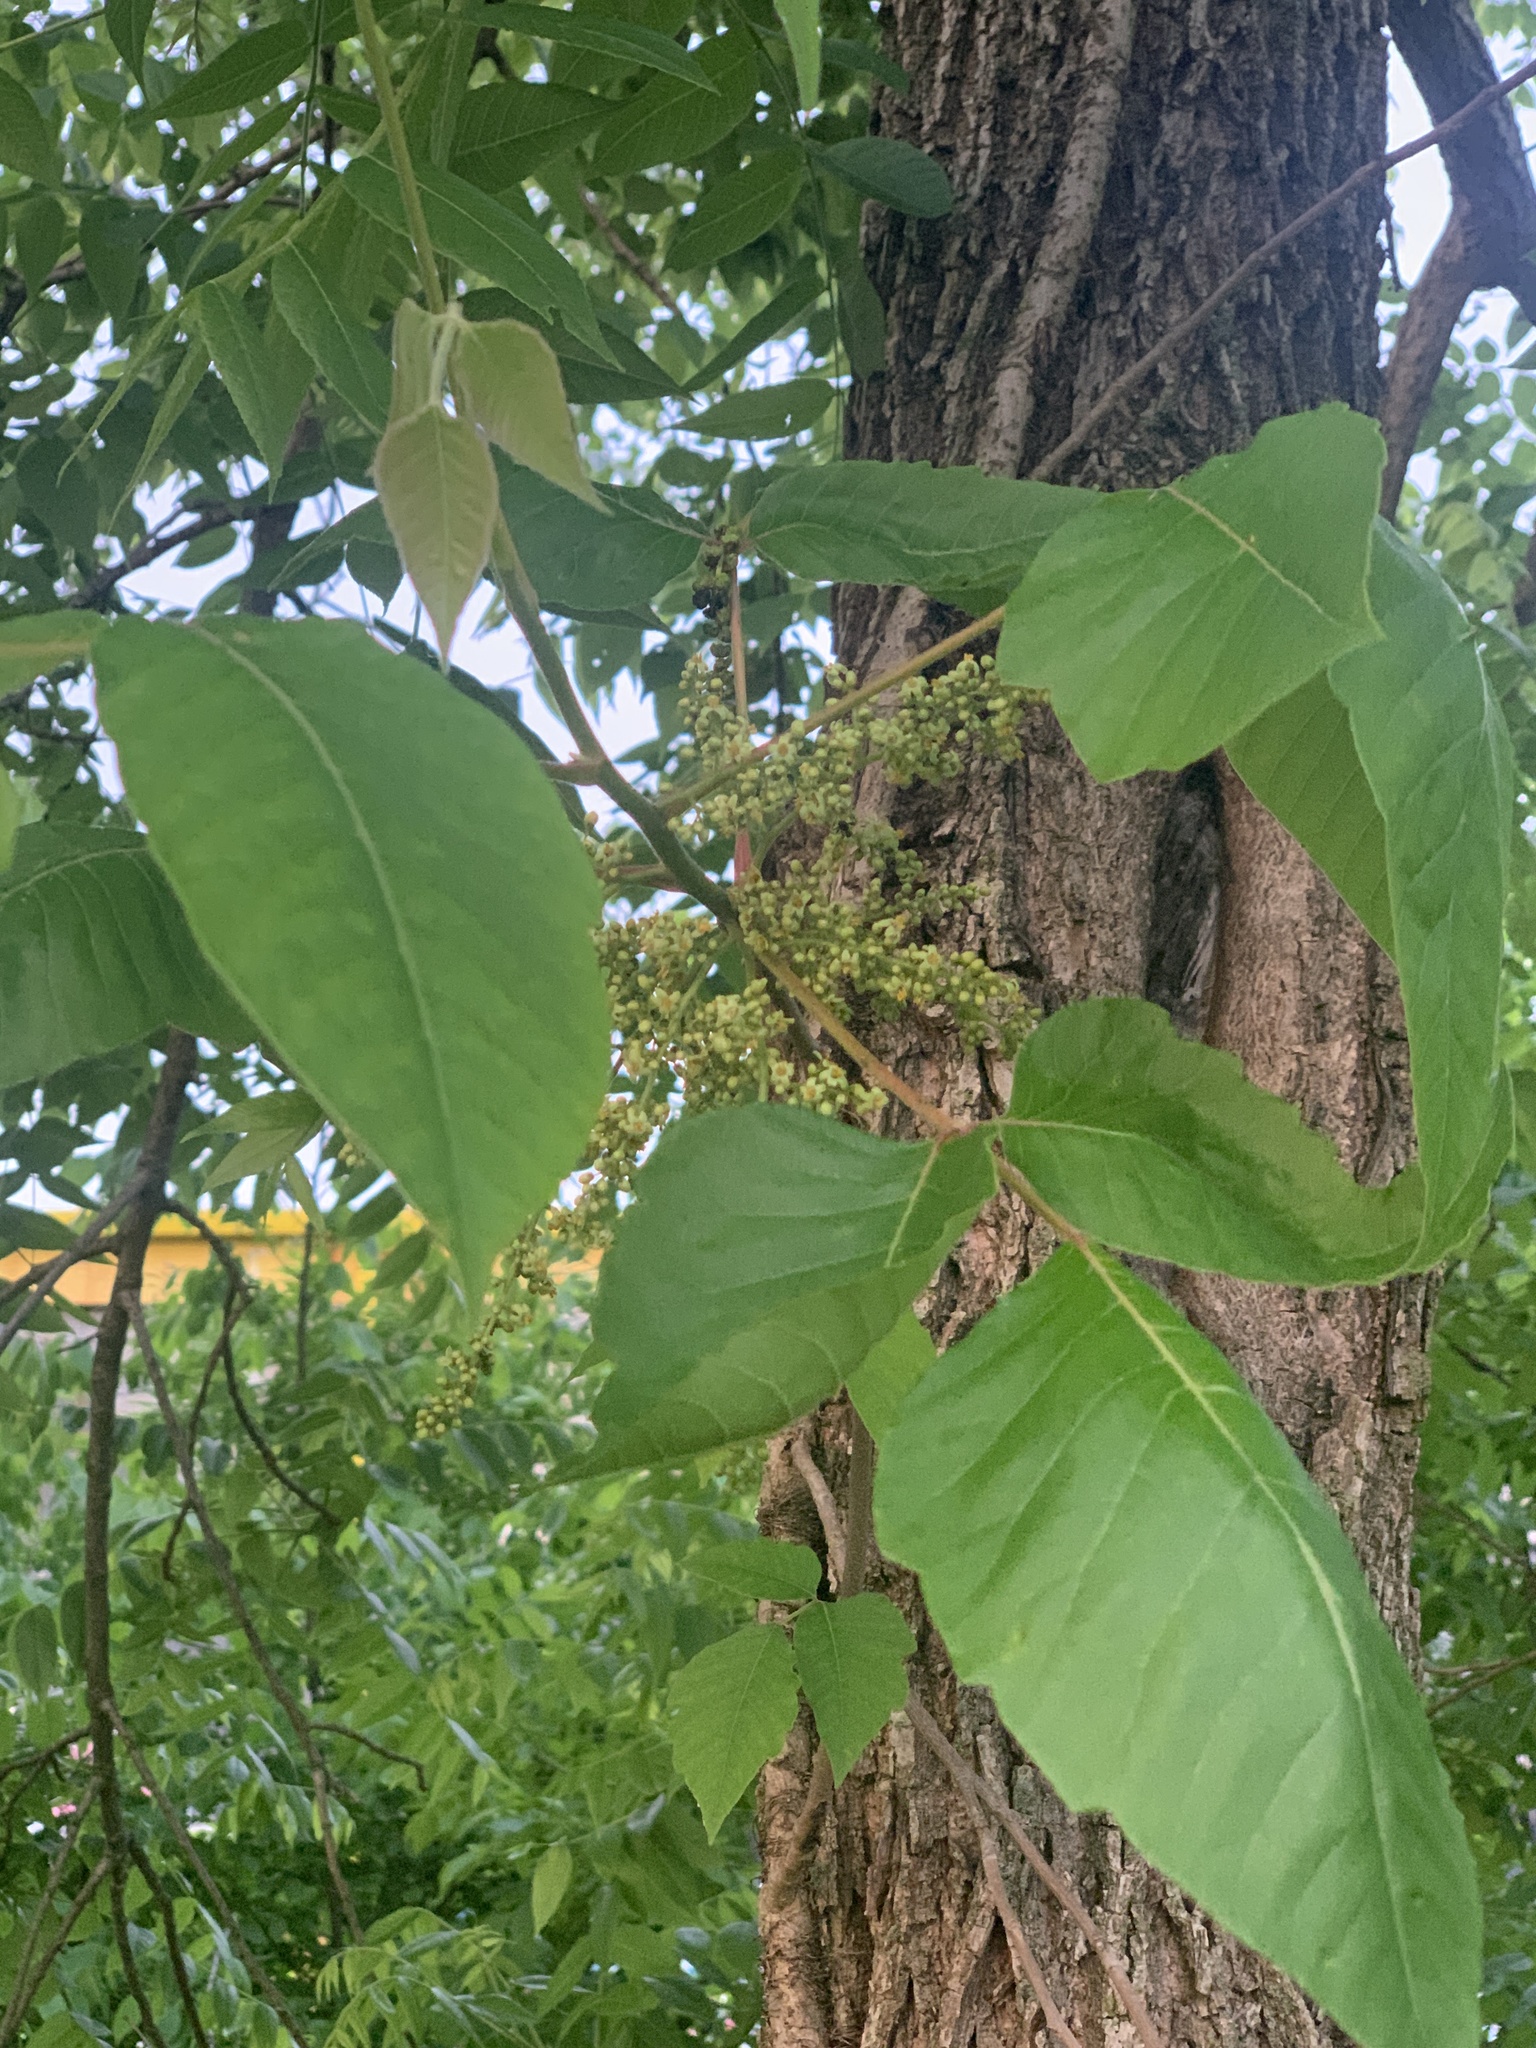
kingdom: Plantae
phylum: Tracheophyta
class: Magnoliopsida
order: Sapindales
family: Anacardiaceae
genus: Toxicodendron
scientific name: Toxicodendron radicans
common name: Poison ivy
